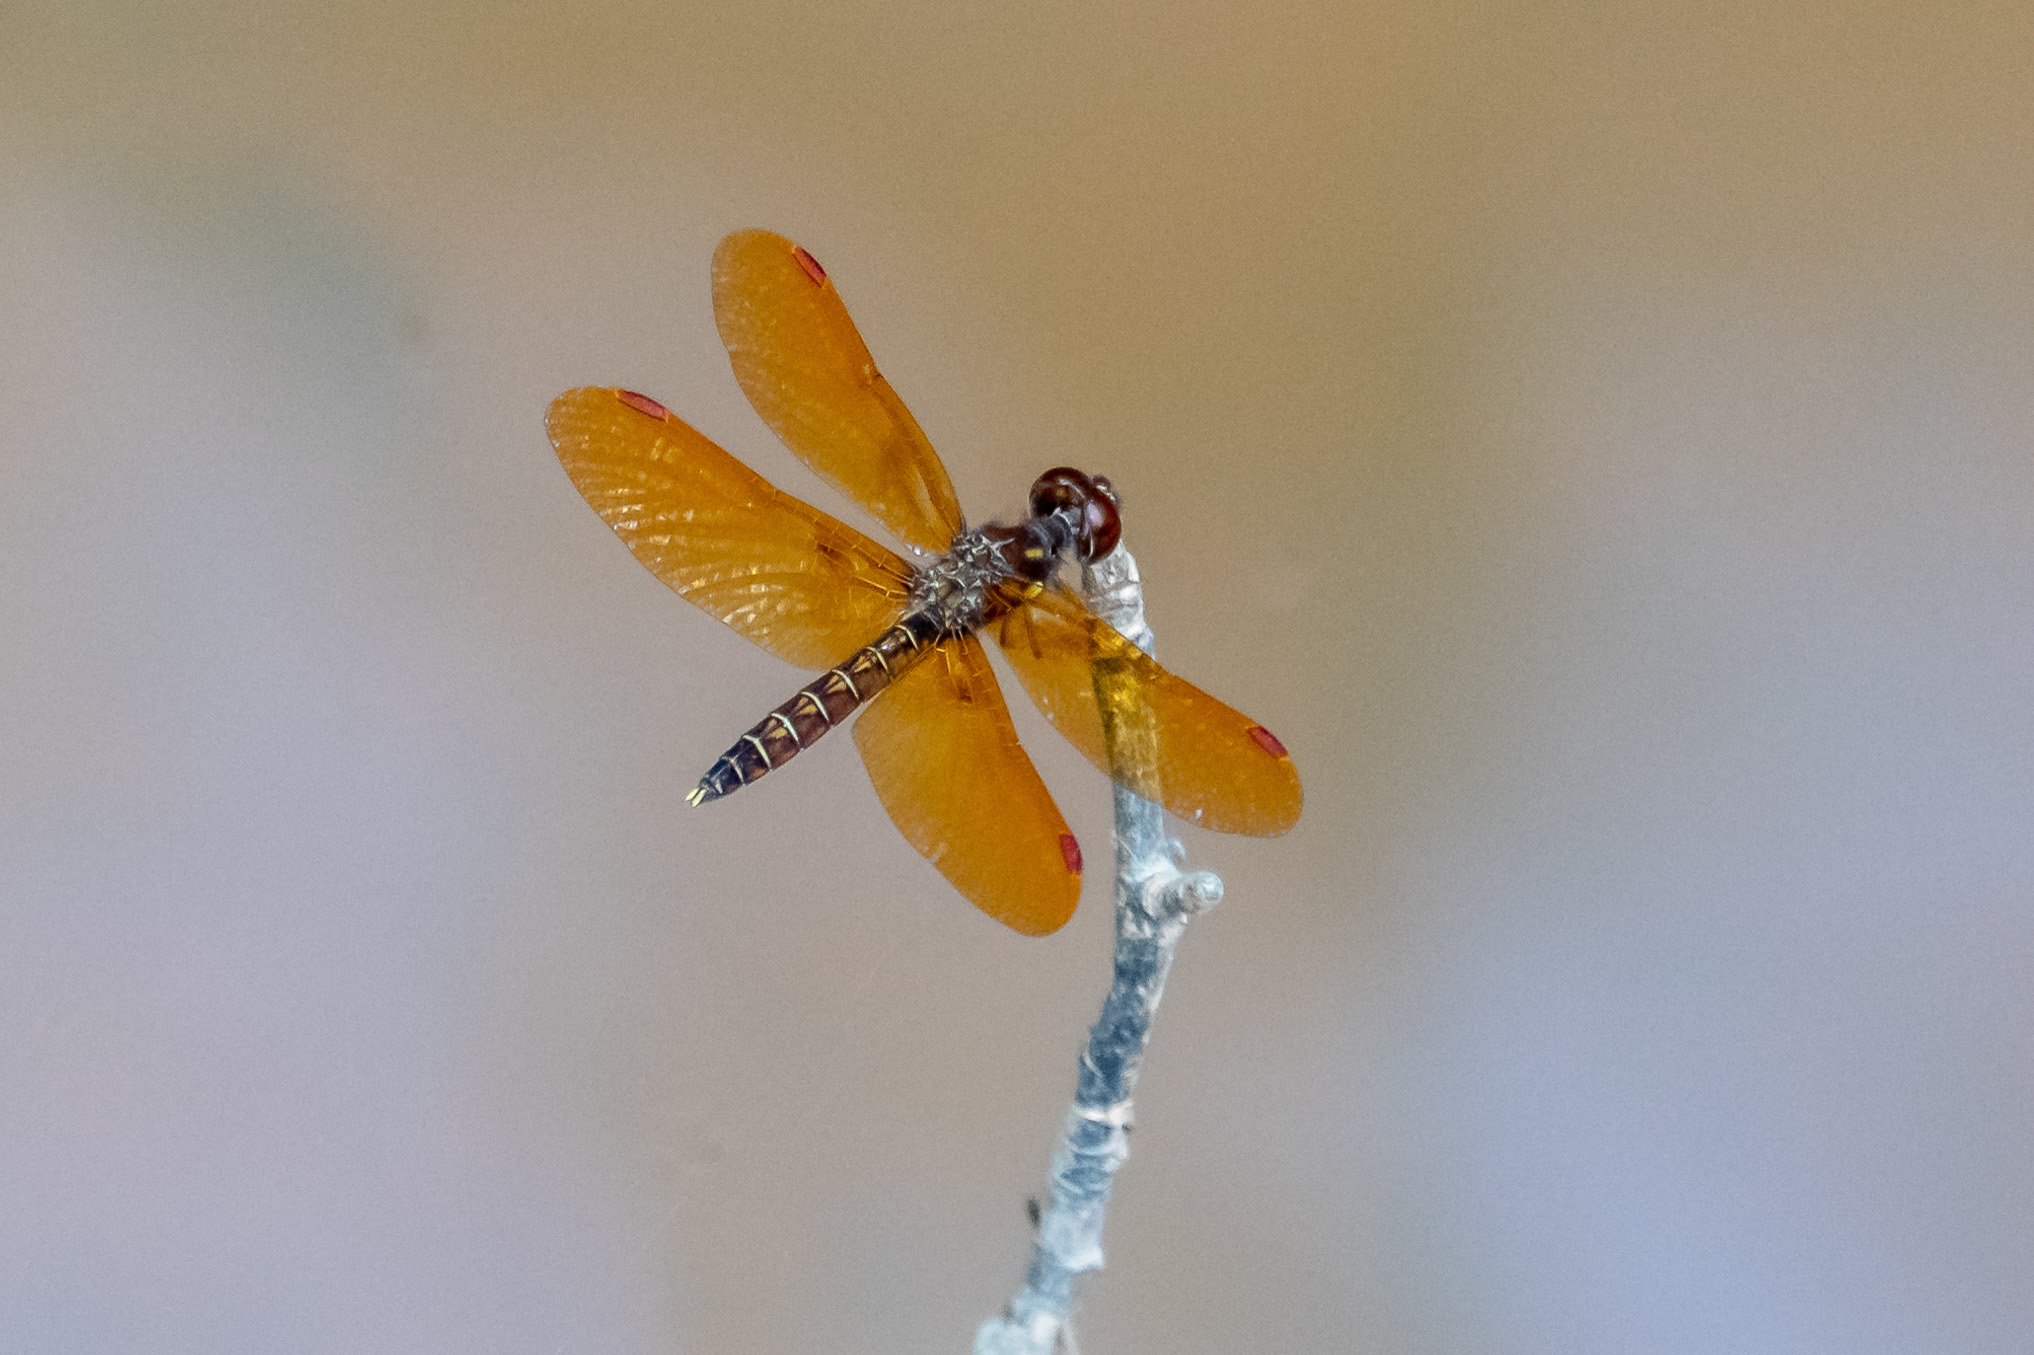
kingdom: Animalia
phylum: Arthropoda
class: Insecta
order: Odonata
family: Libellulidae
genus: Perithemis
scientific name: Perithemis tenera
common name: Eastern amberwing
